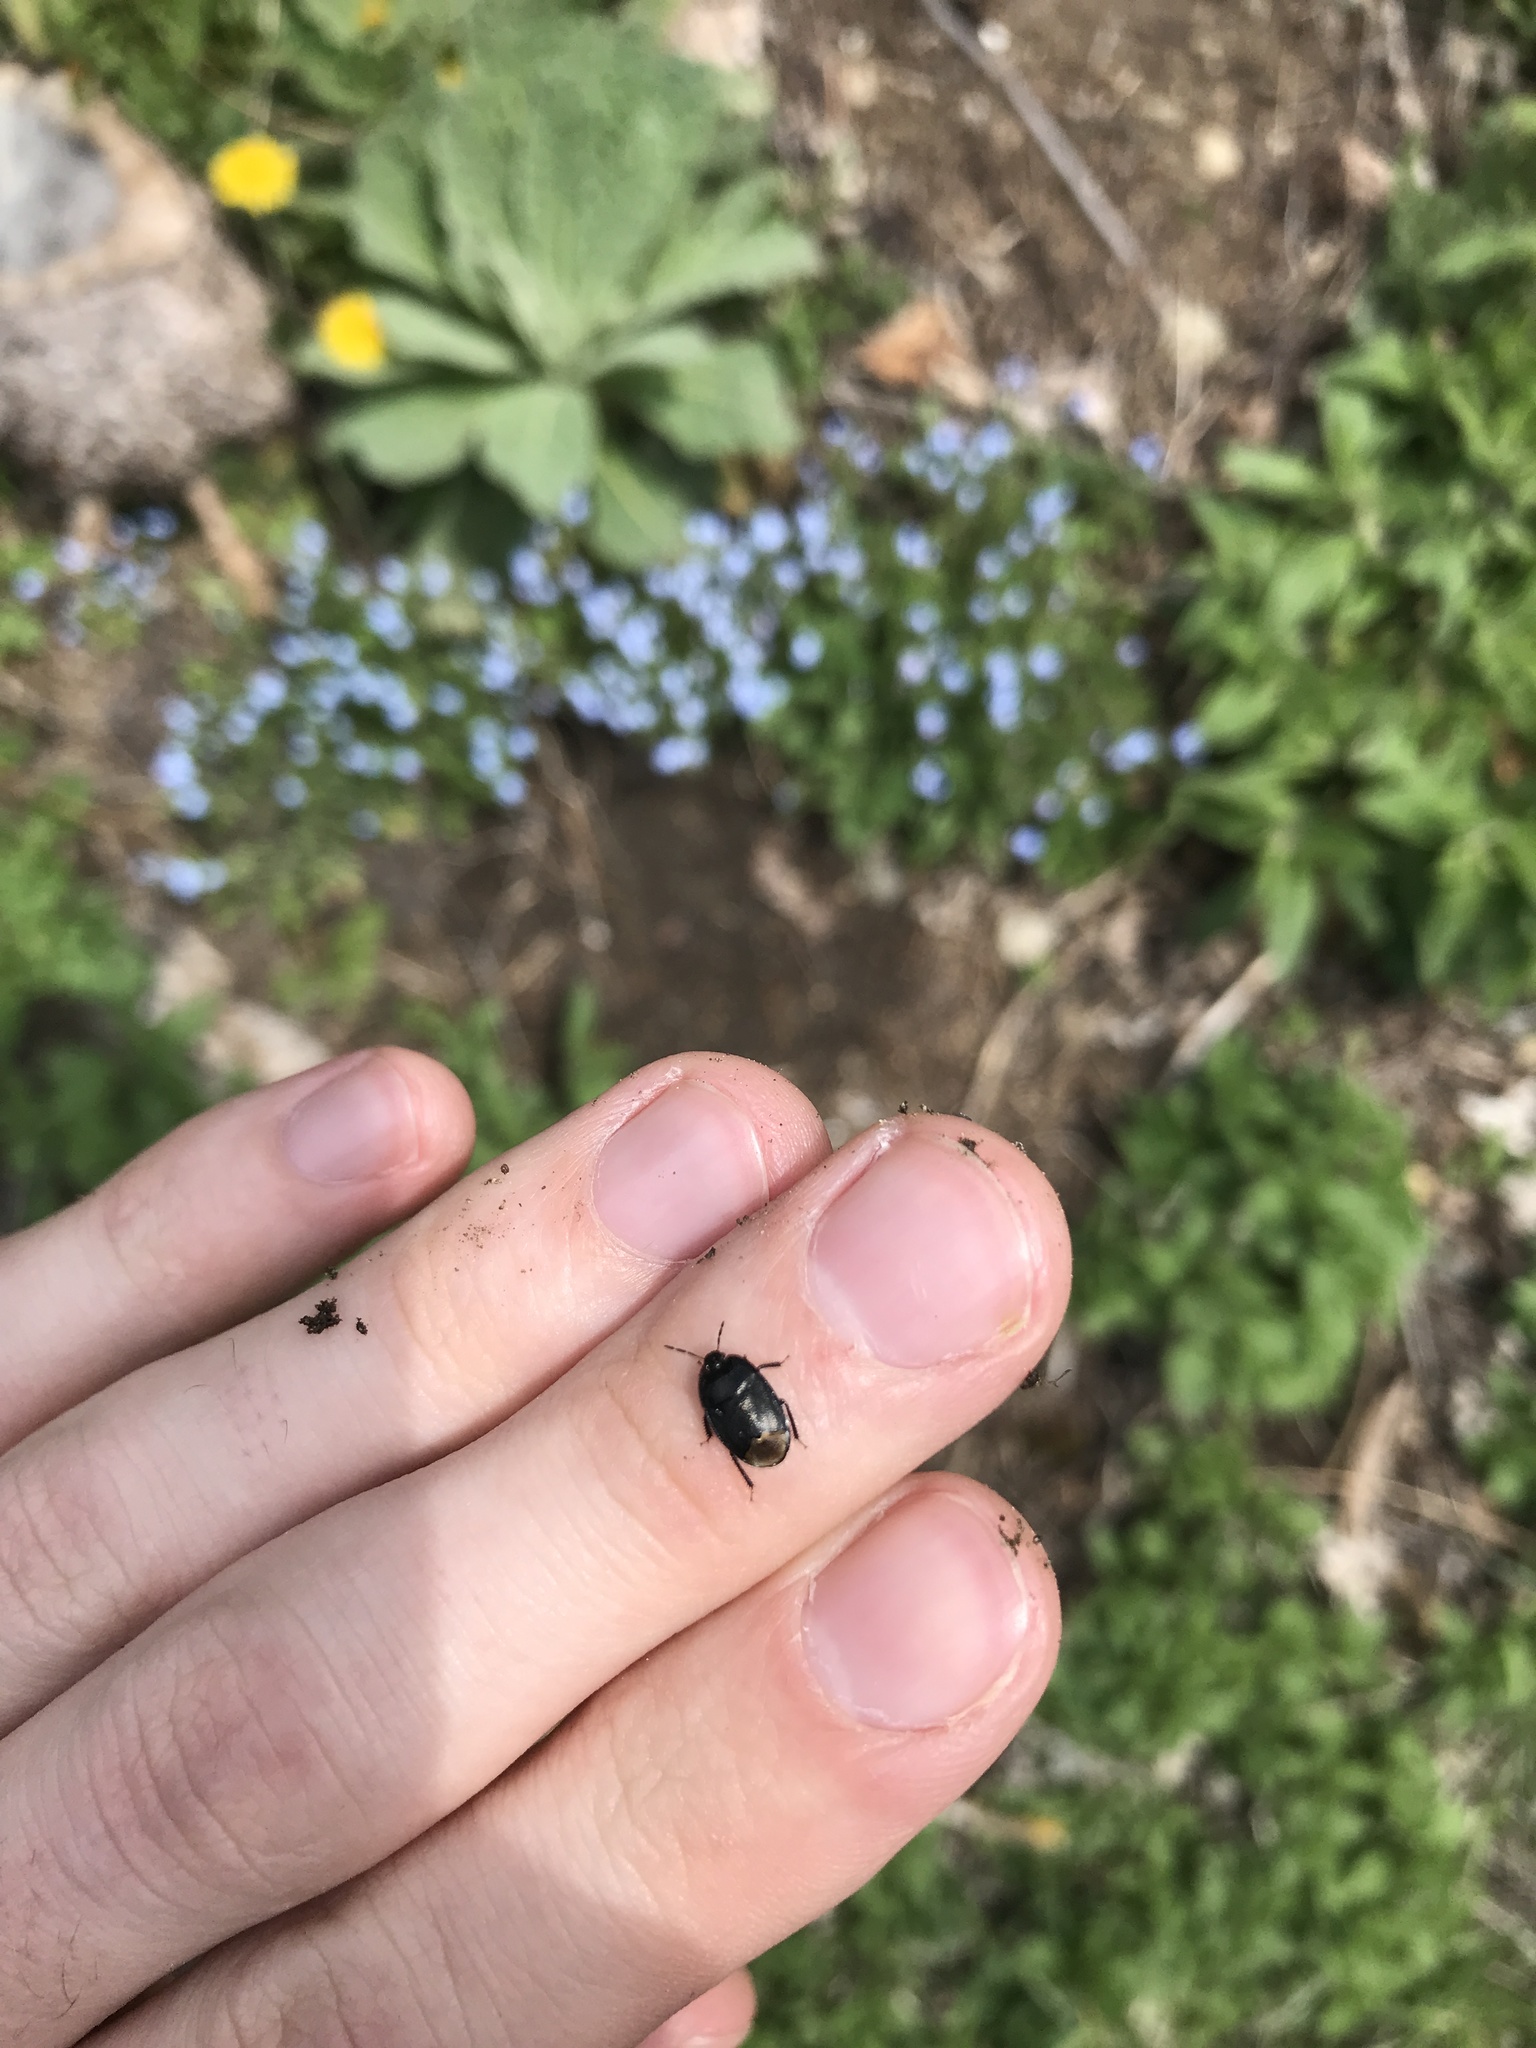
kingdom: Animalia
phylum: Arthropoda
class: Insecta
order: Hemiptera
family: Cydnidae
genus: Sehirus
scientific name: Sehirus luctuosus
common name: Forget-me-not shieldbug
